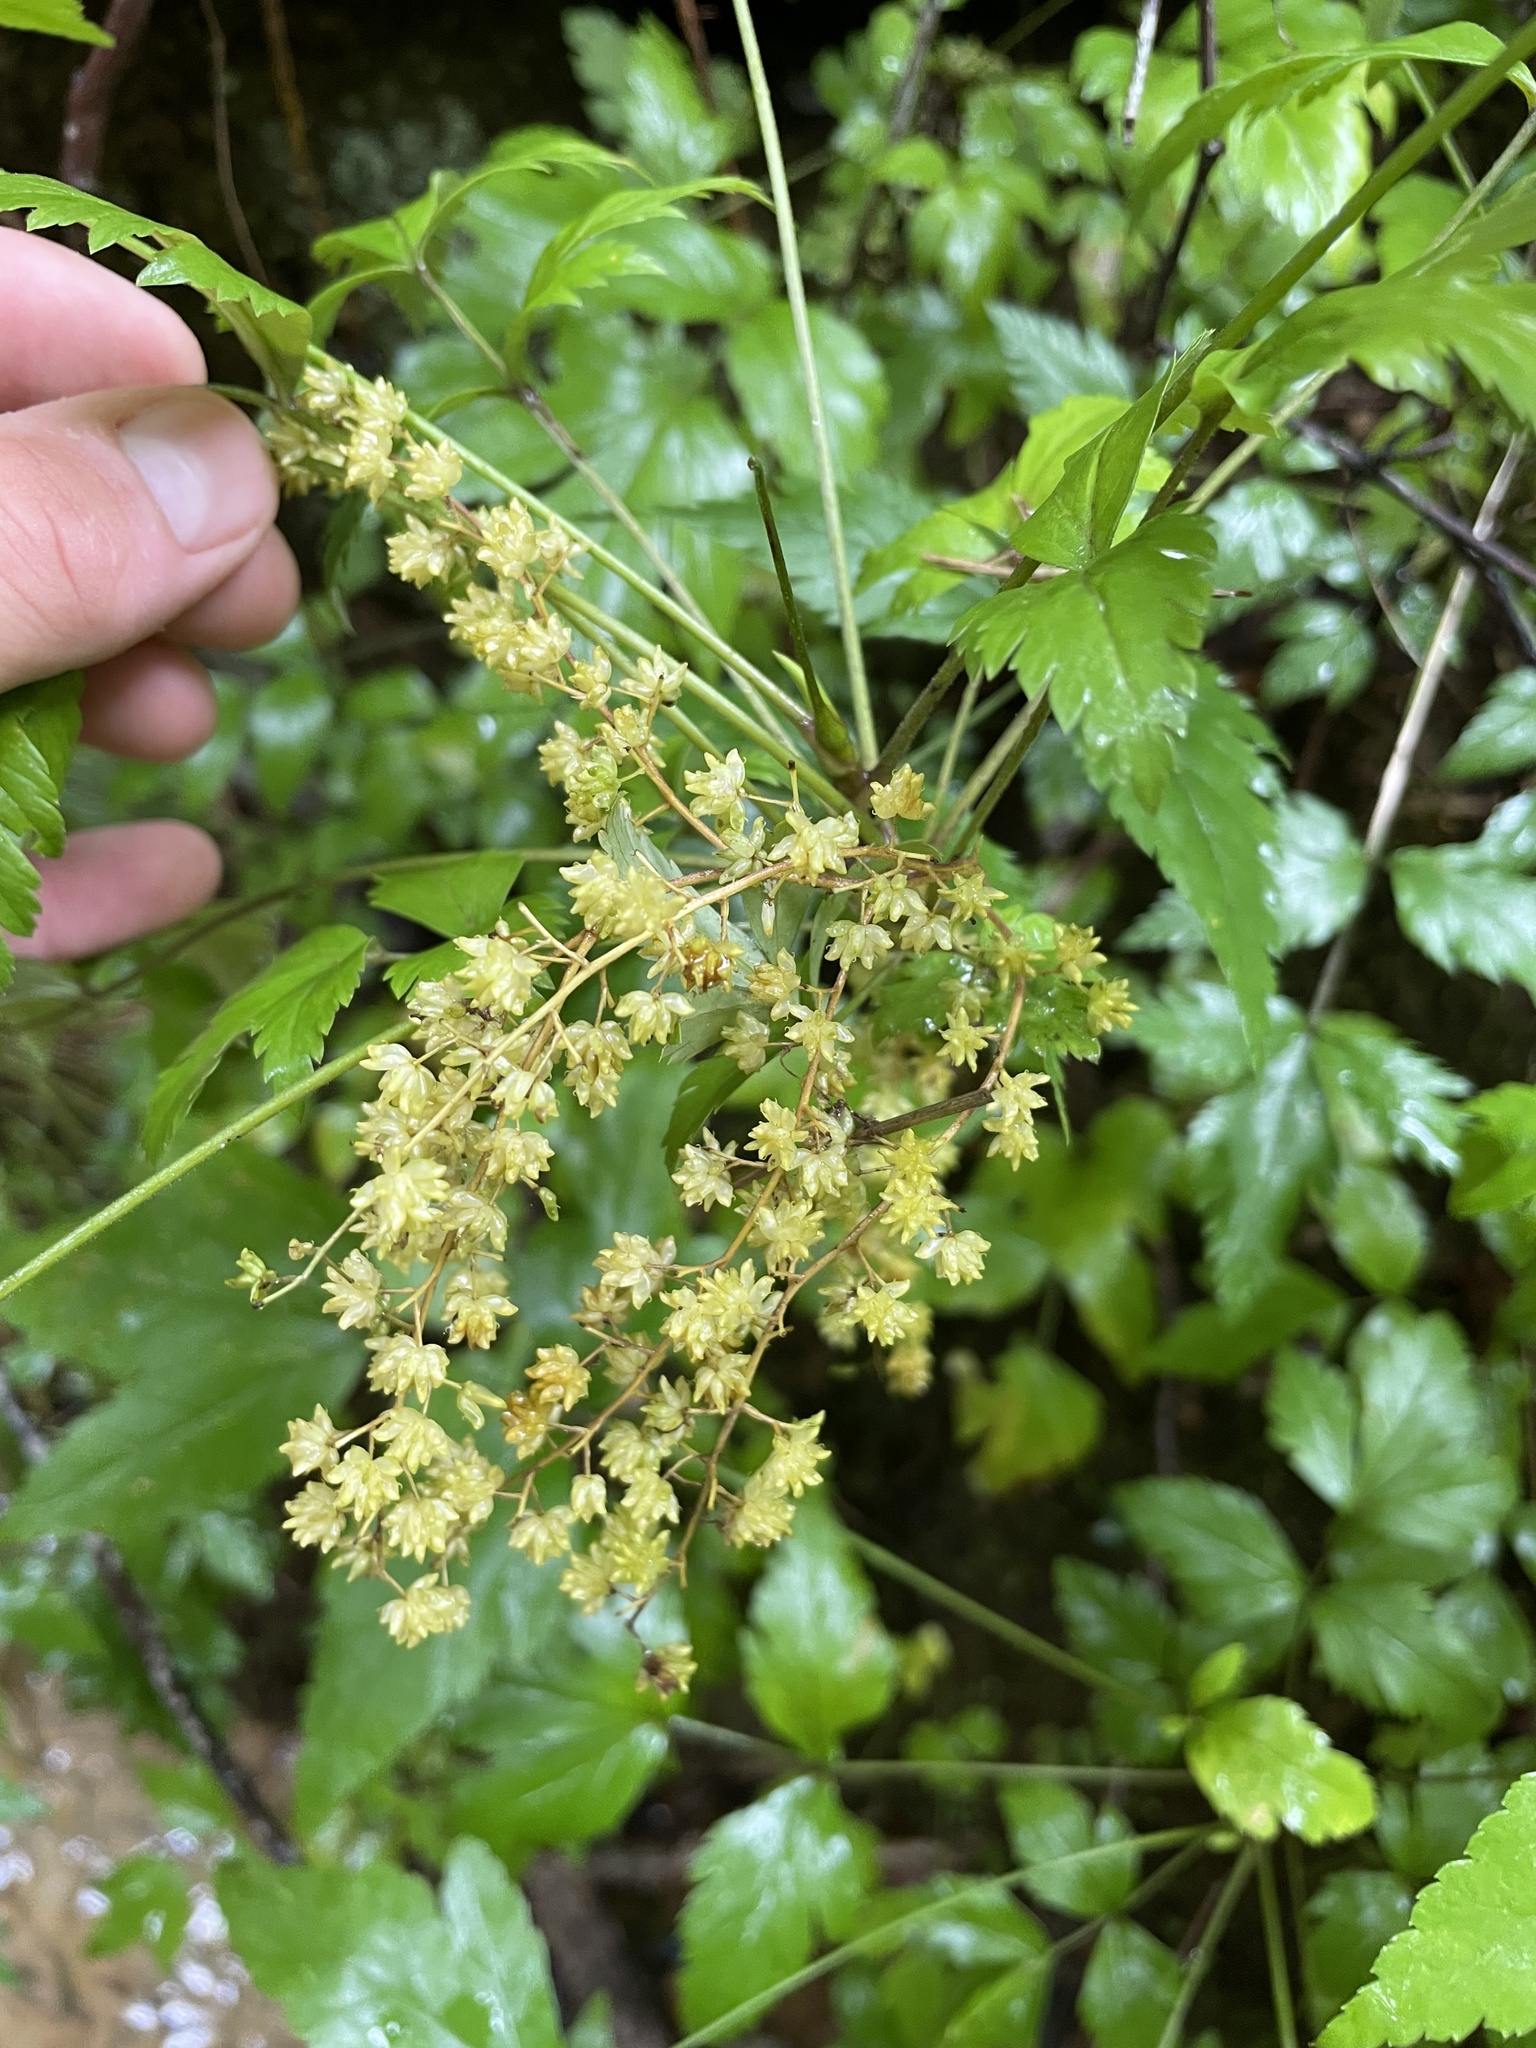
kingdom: Plantae
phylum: Tracheophyta
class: Magnoliopsida
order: Ranunculales
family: Ranunculaceae
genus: Xanthorhiza
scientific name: Xanthorhiza simplicissima
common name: Yellowroot
